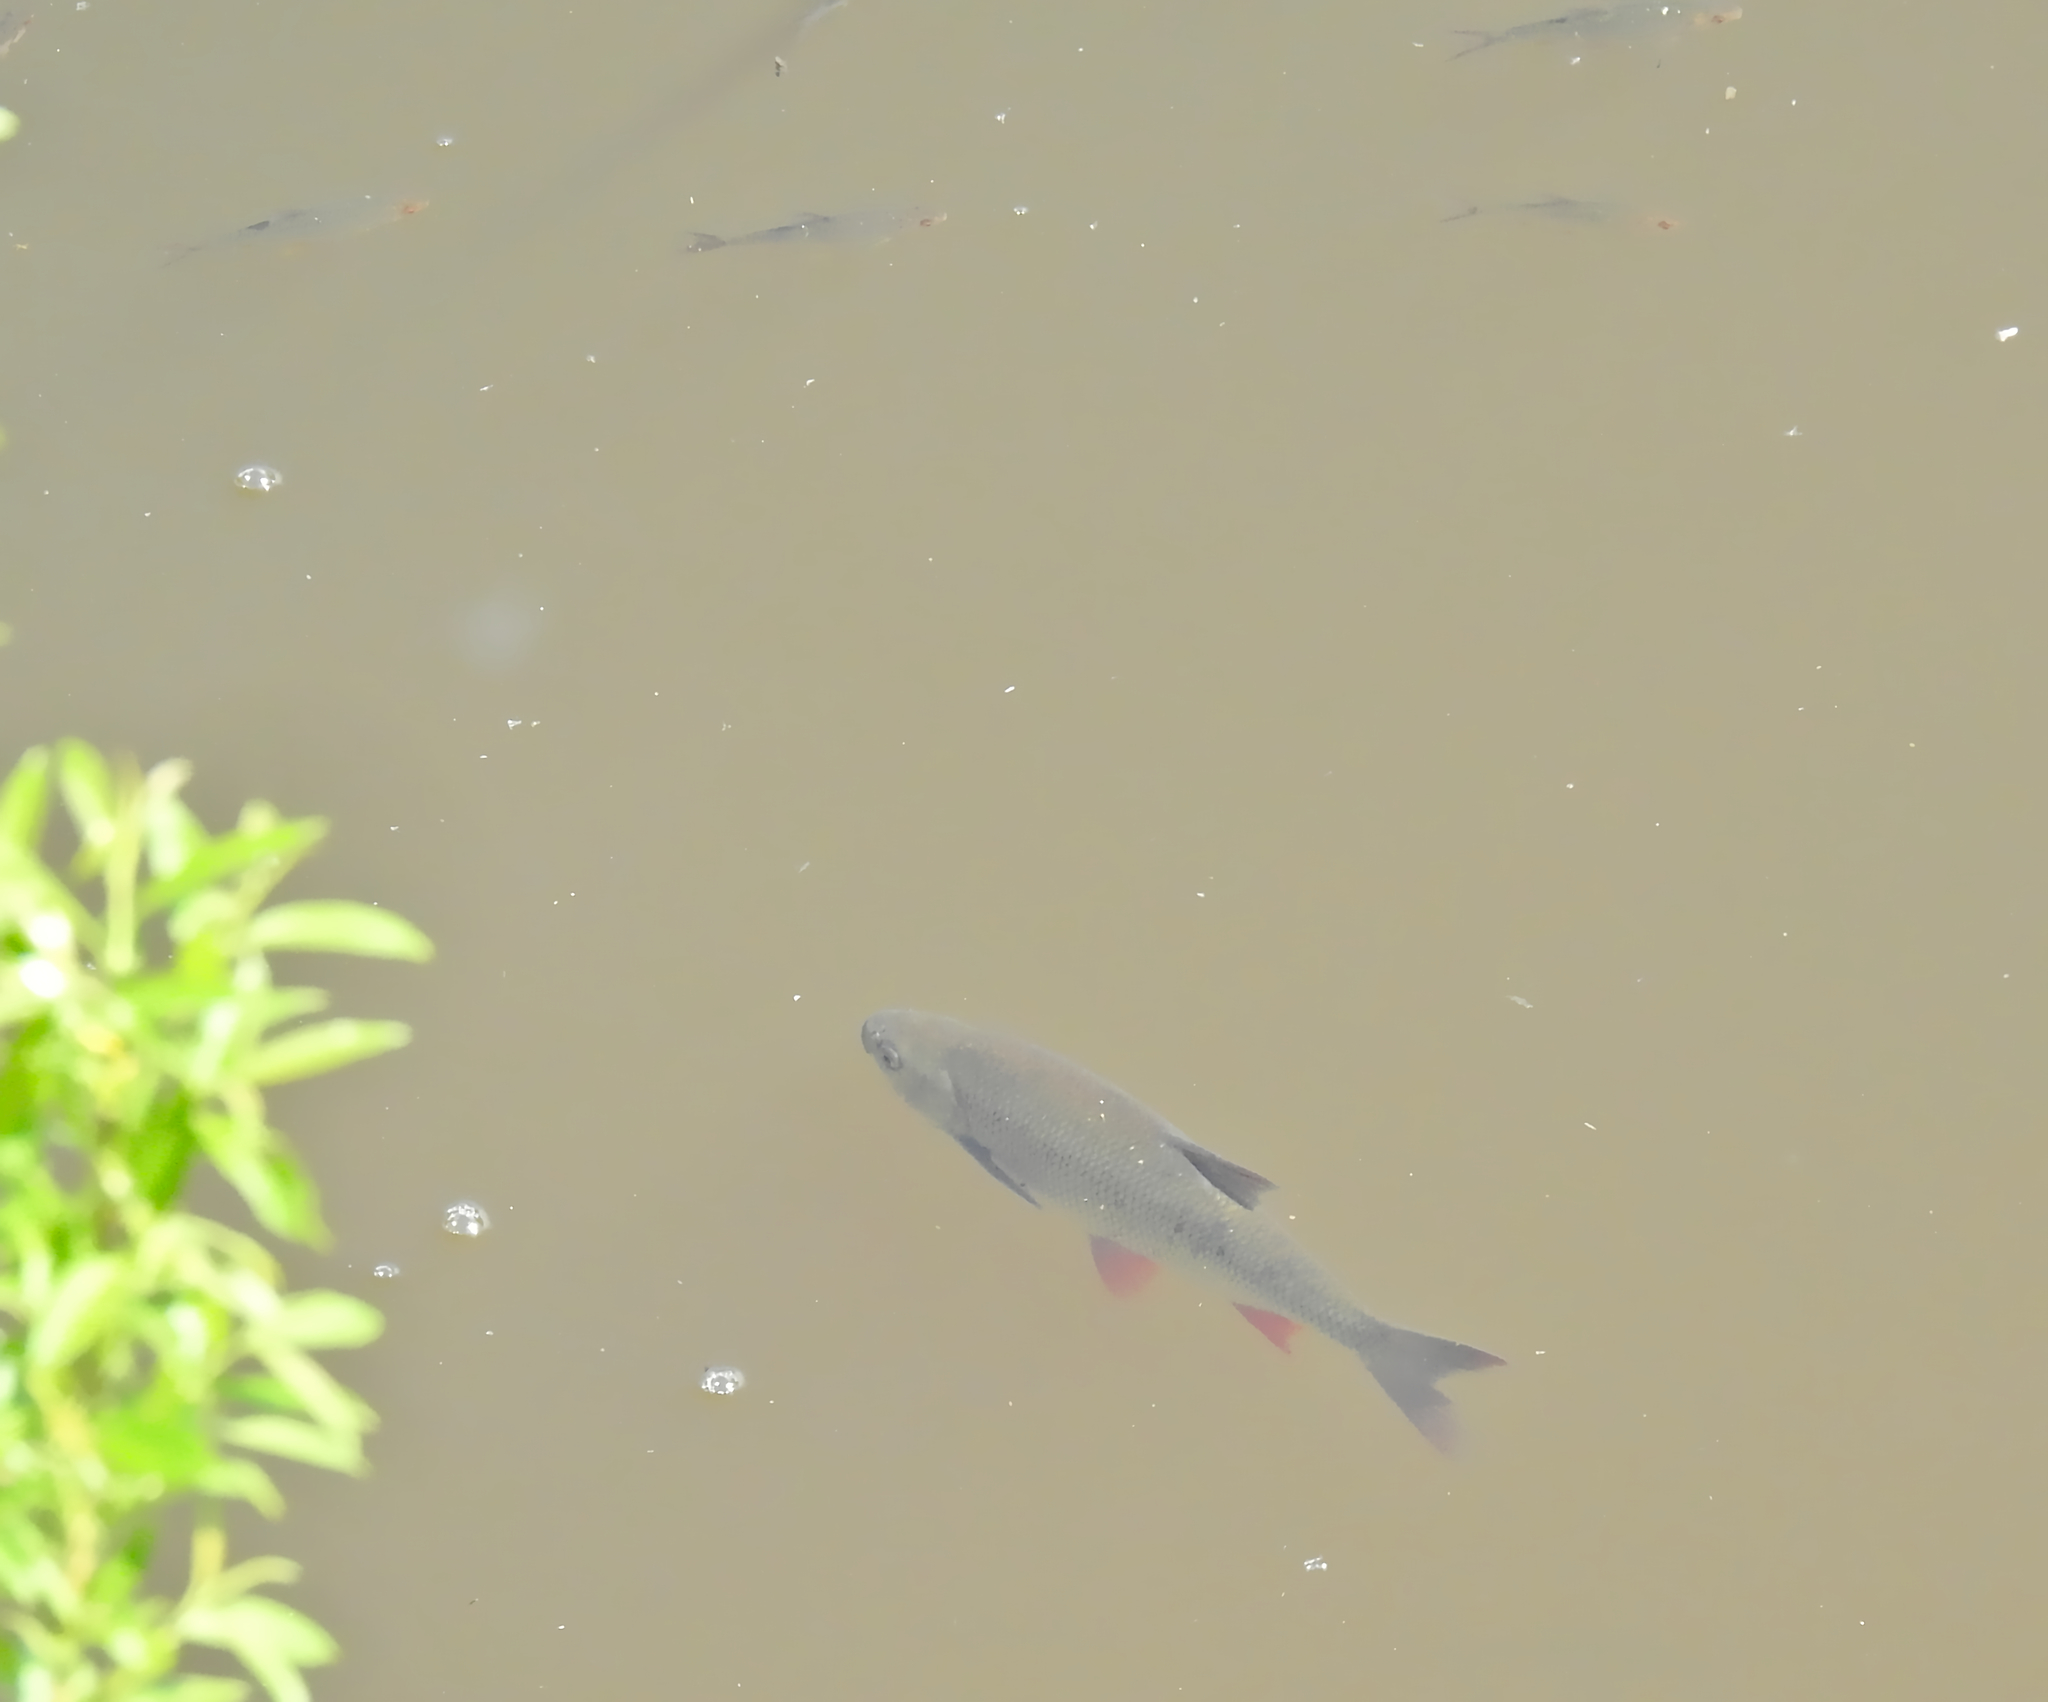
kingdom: Animalia
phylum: Chordata
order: Cypriniformes
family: Cyprinidae
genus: Leuciscus
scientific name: Leuciscus idus
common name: Ide
